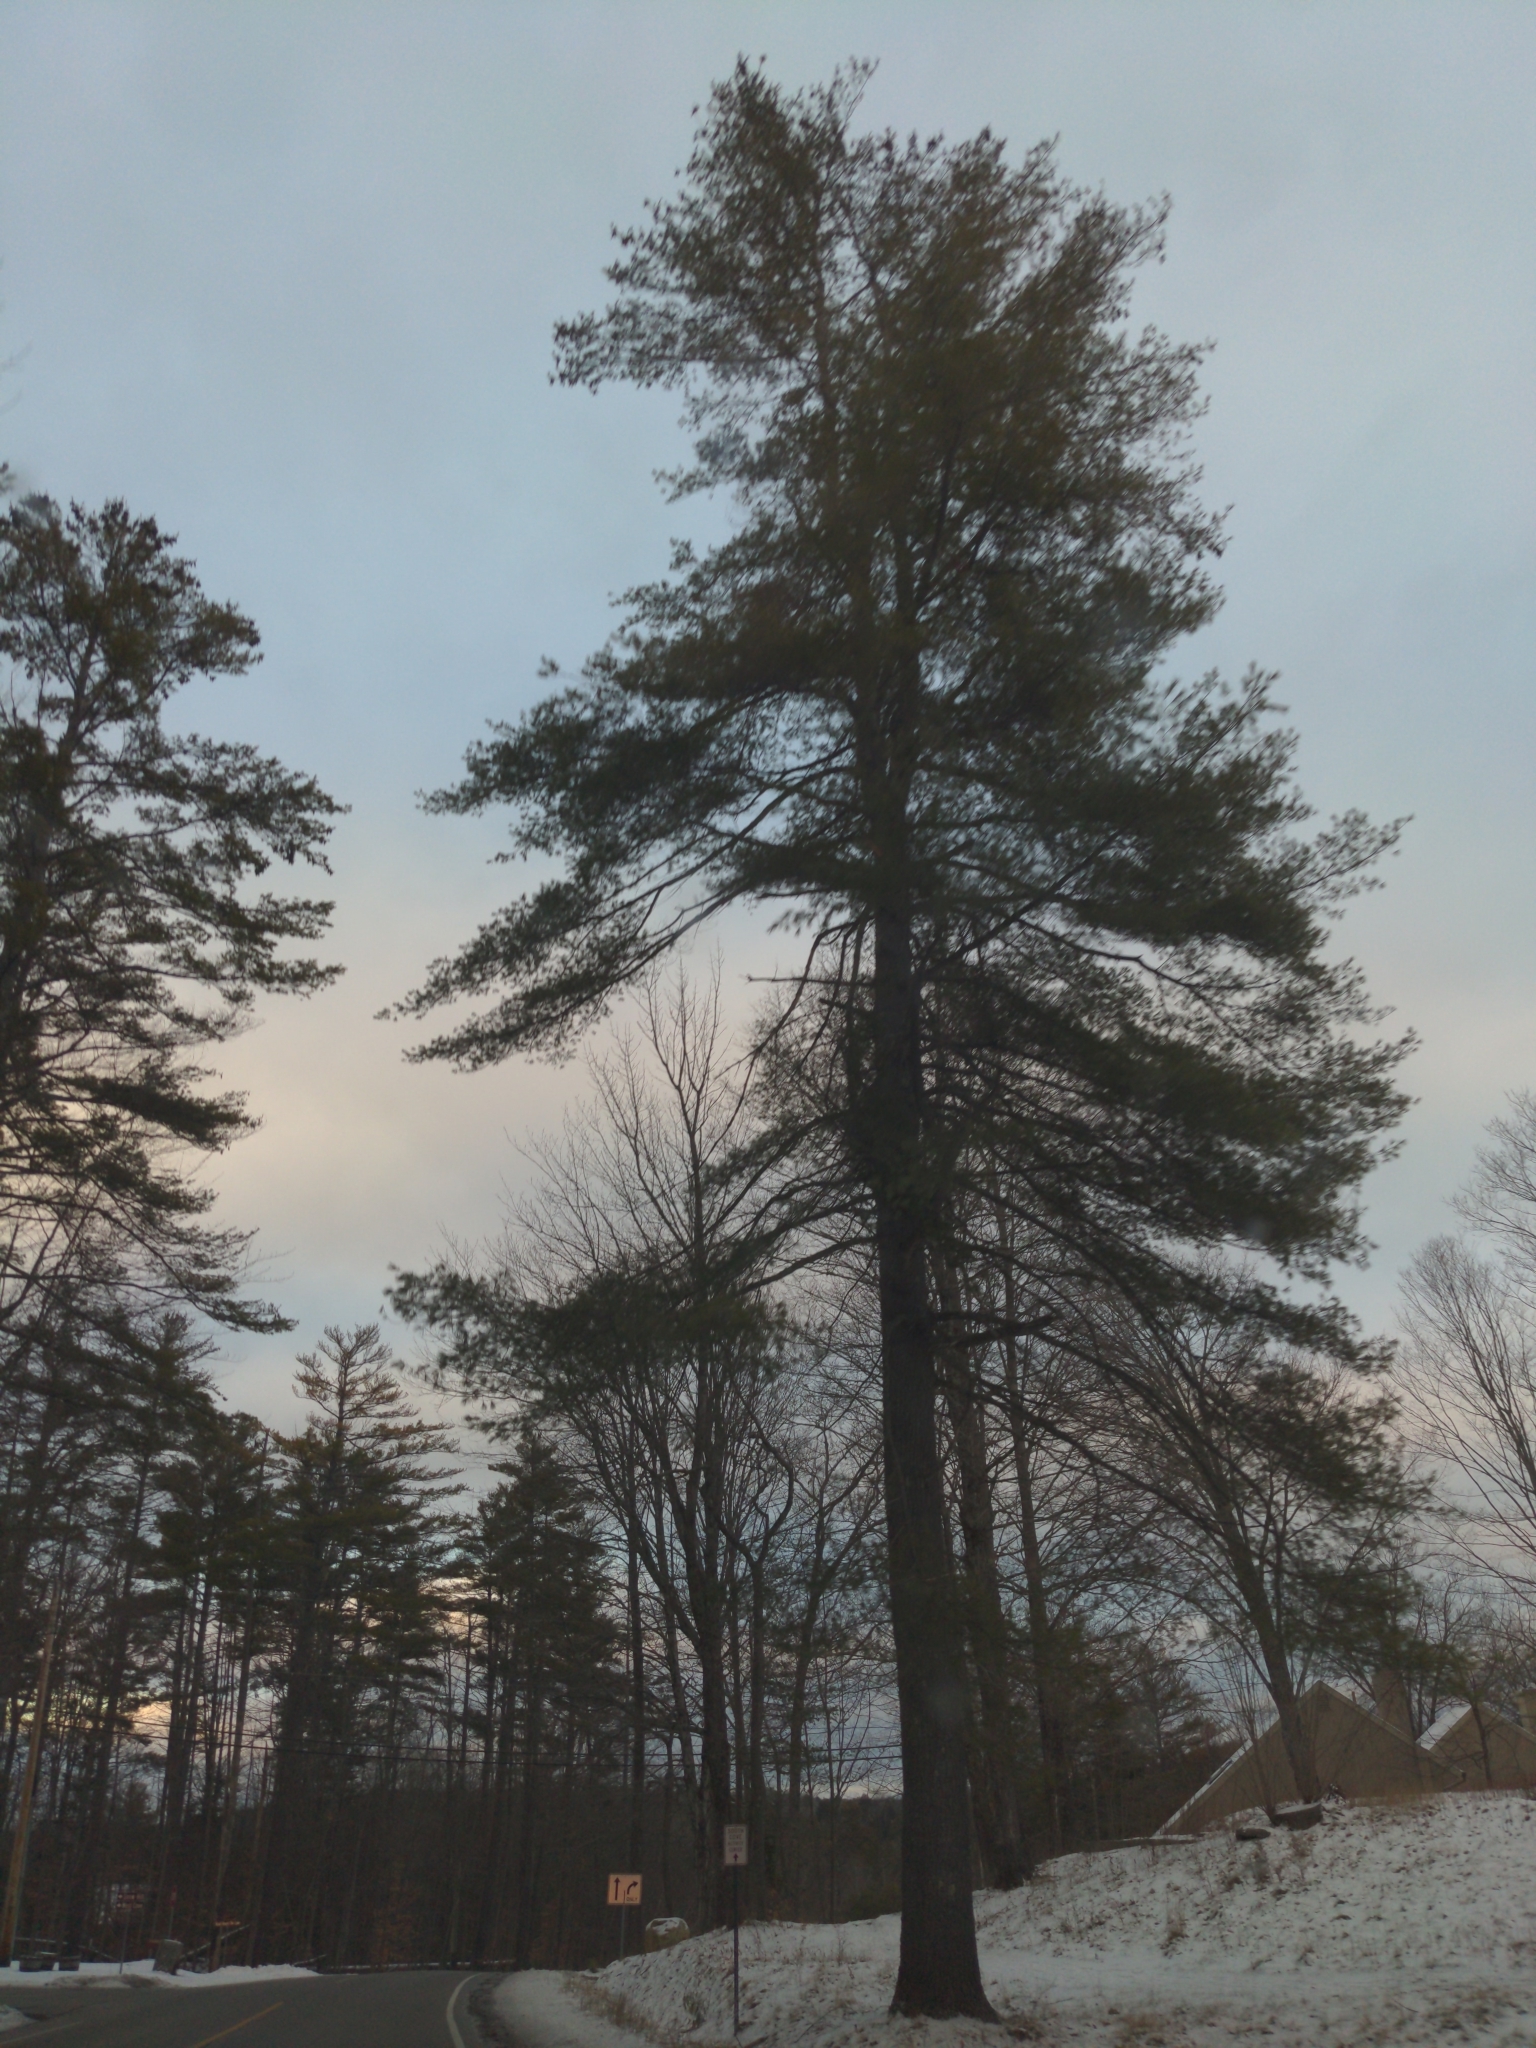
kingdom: Plantae
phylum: Tracheophyta
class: Pinopsida
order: Pinales
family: Pinaceae
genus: Pinus
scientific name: Pinus strobus
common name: Weymouth pine
